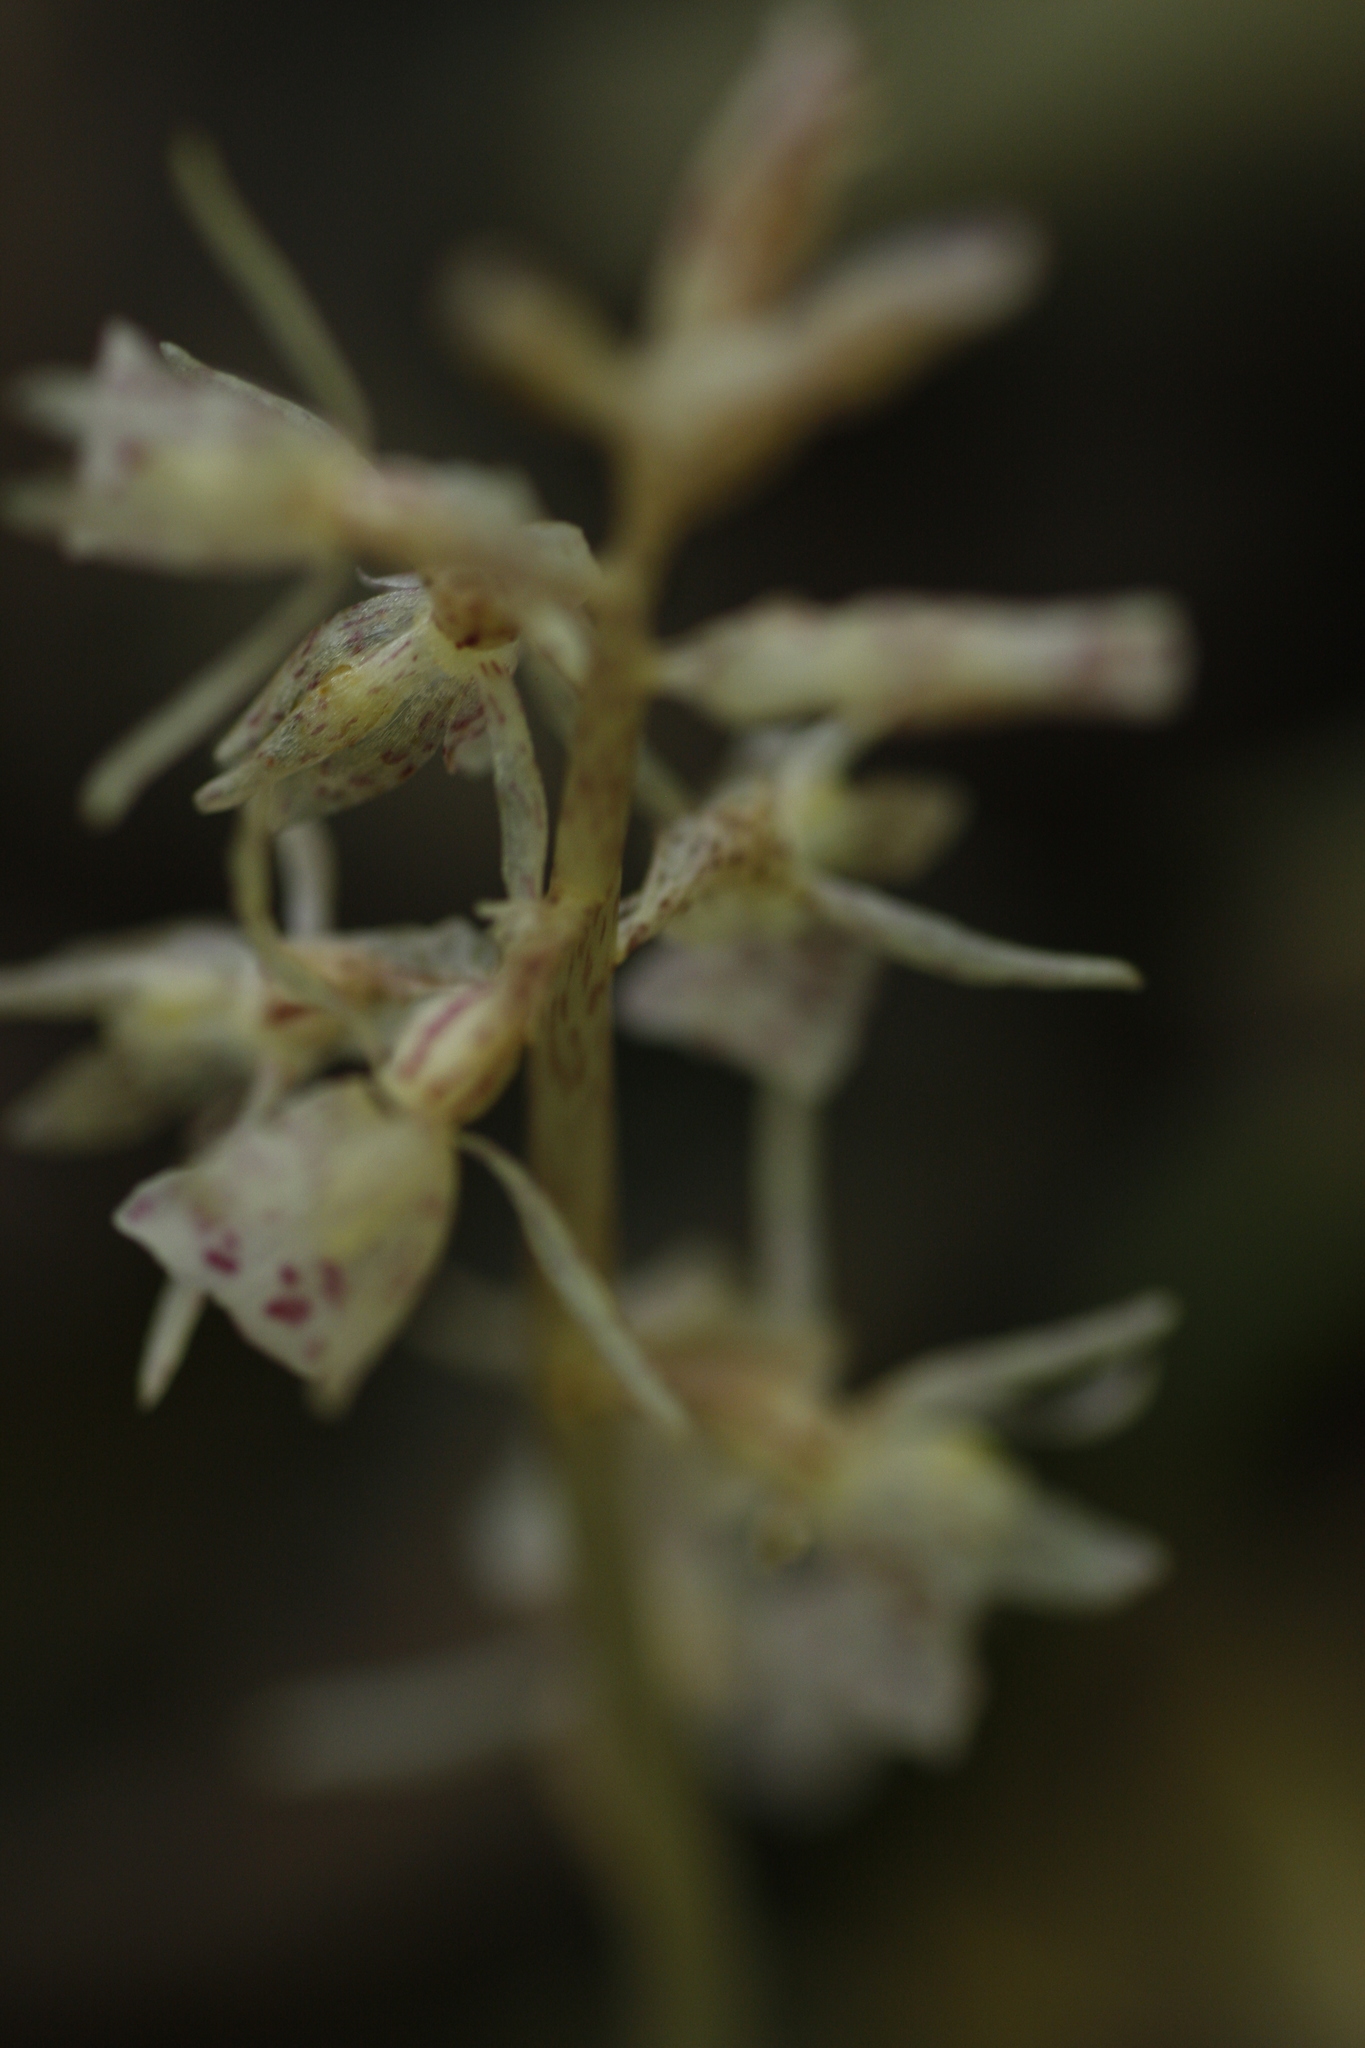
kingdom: Plantae
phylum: Tracheophyta
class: Liliopsida
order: Asparagales
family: Orchidaceae
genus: Epipogium
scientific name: Epipogium roseum
